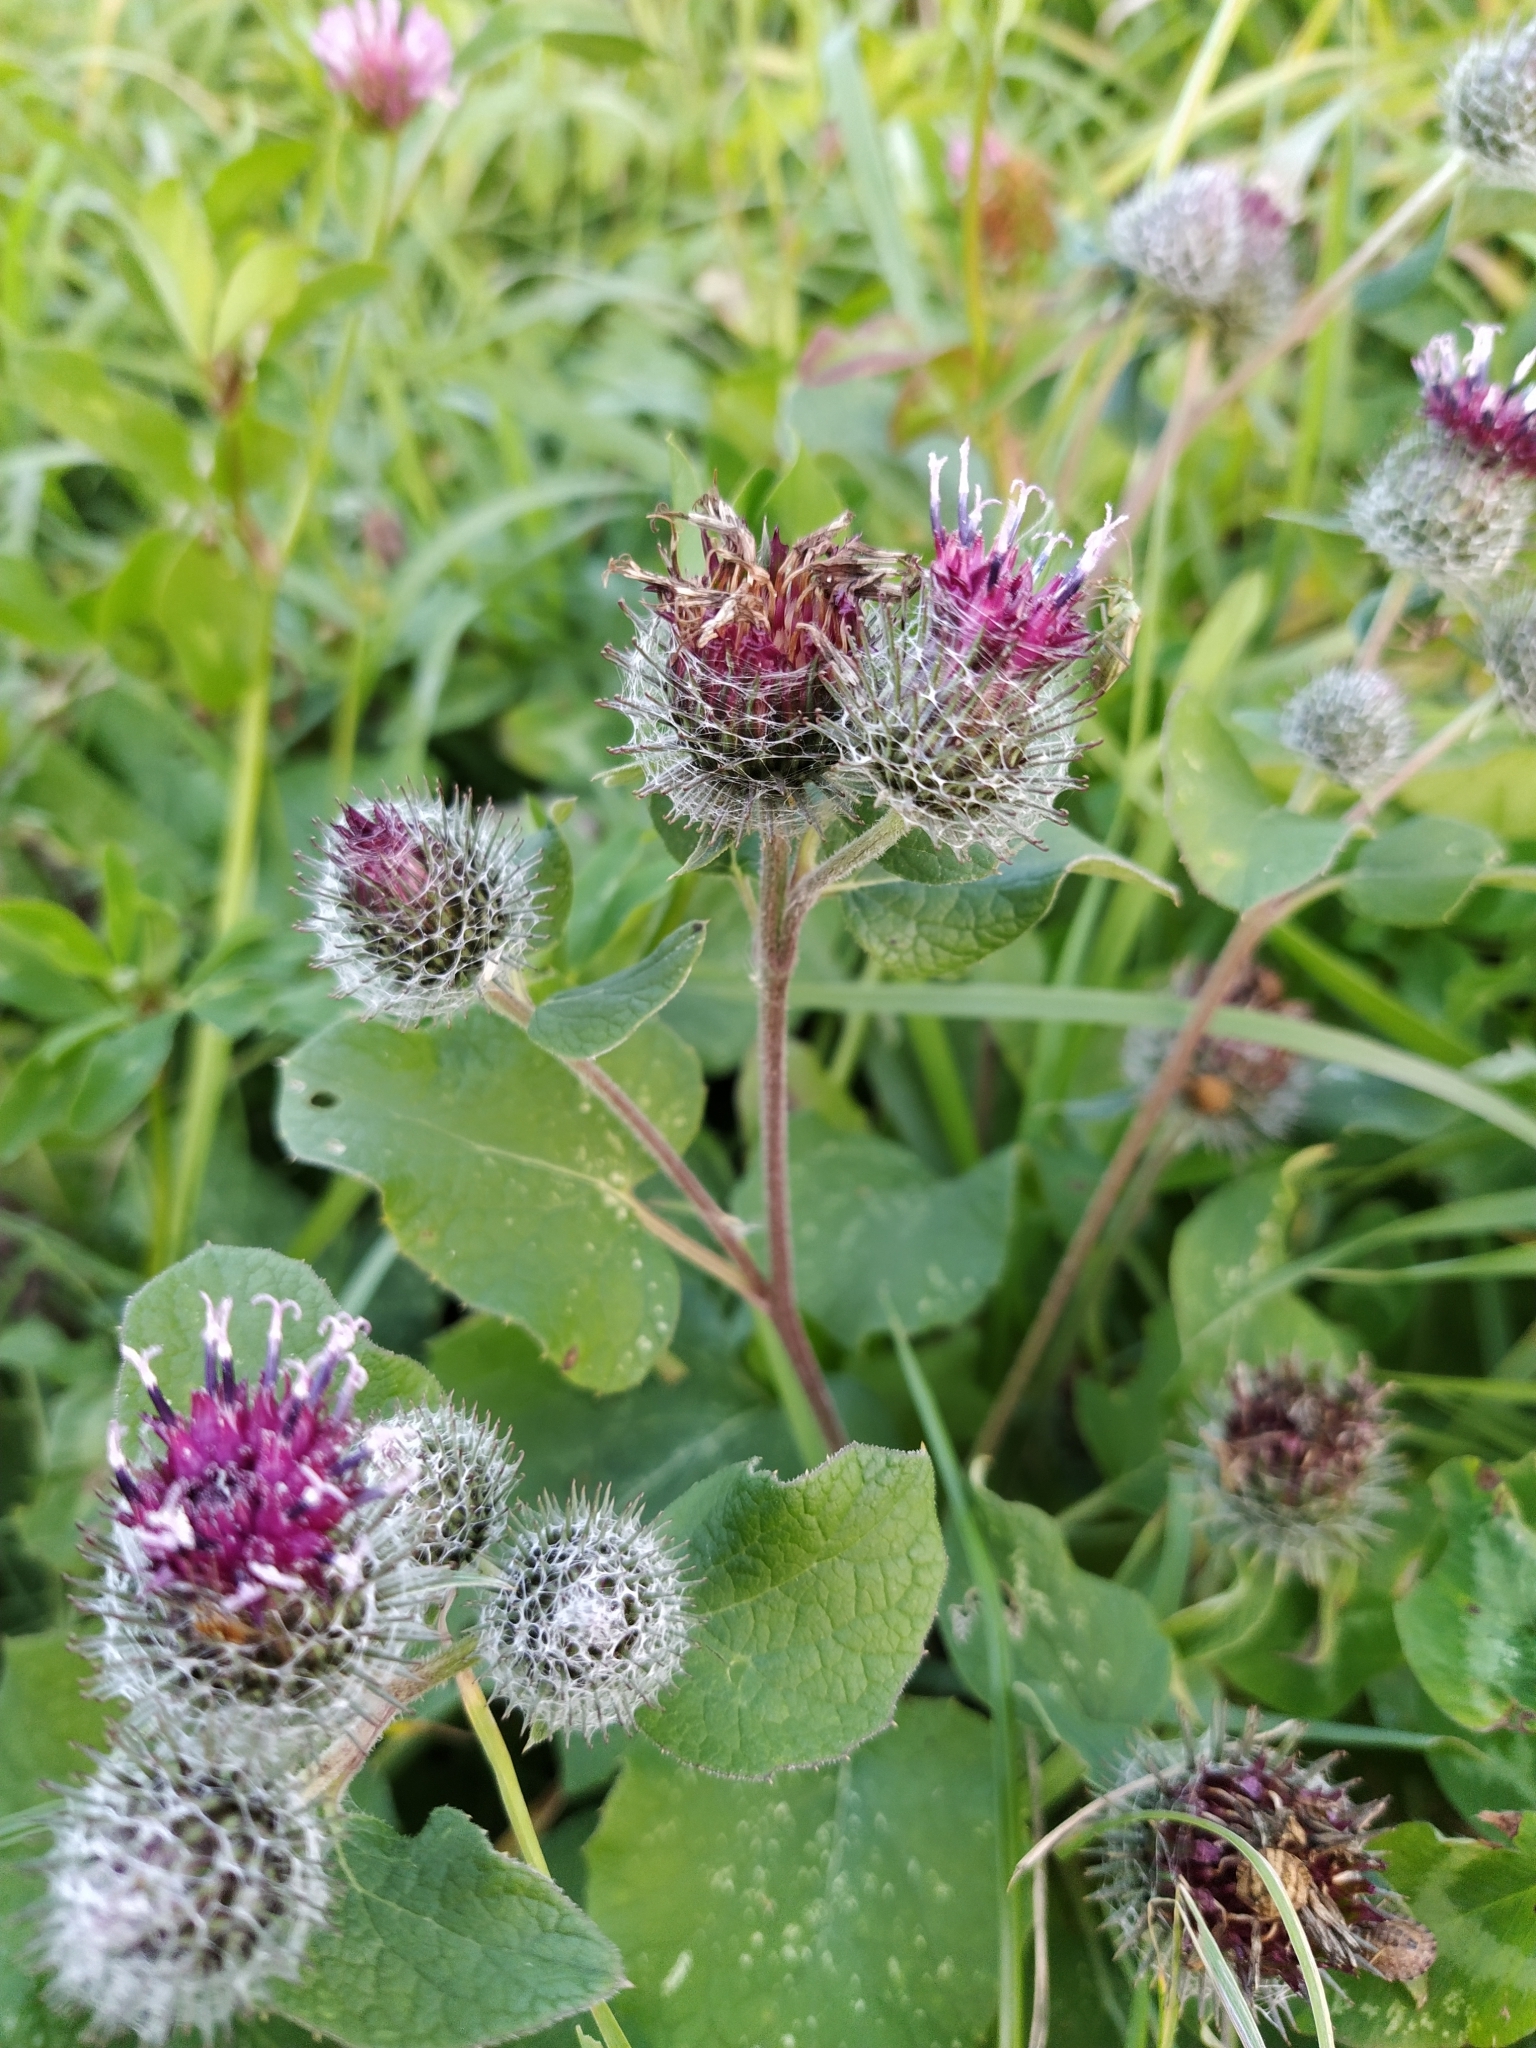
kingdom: Plantae
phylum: Tracheophyta
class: Magnoliopsida
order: Asterales
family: Asteraceae
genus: Arctium
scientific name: Arctium tomentosum
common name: Woolly burdock
